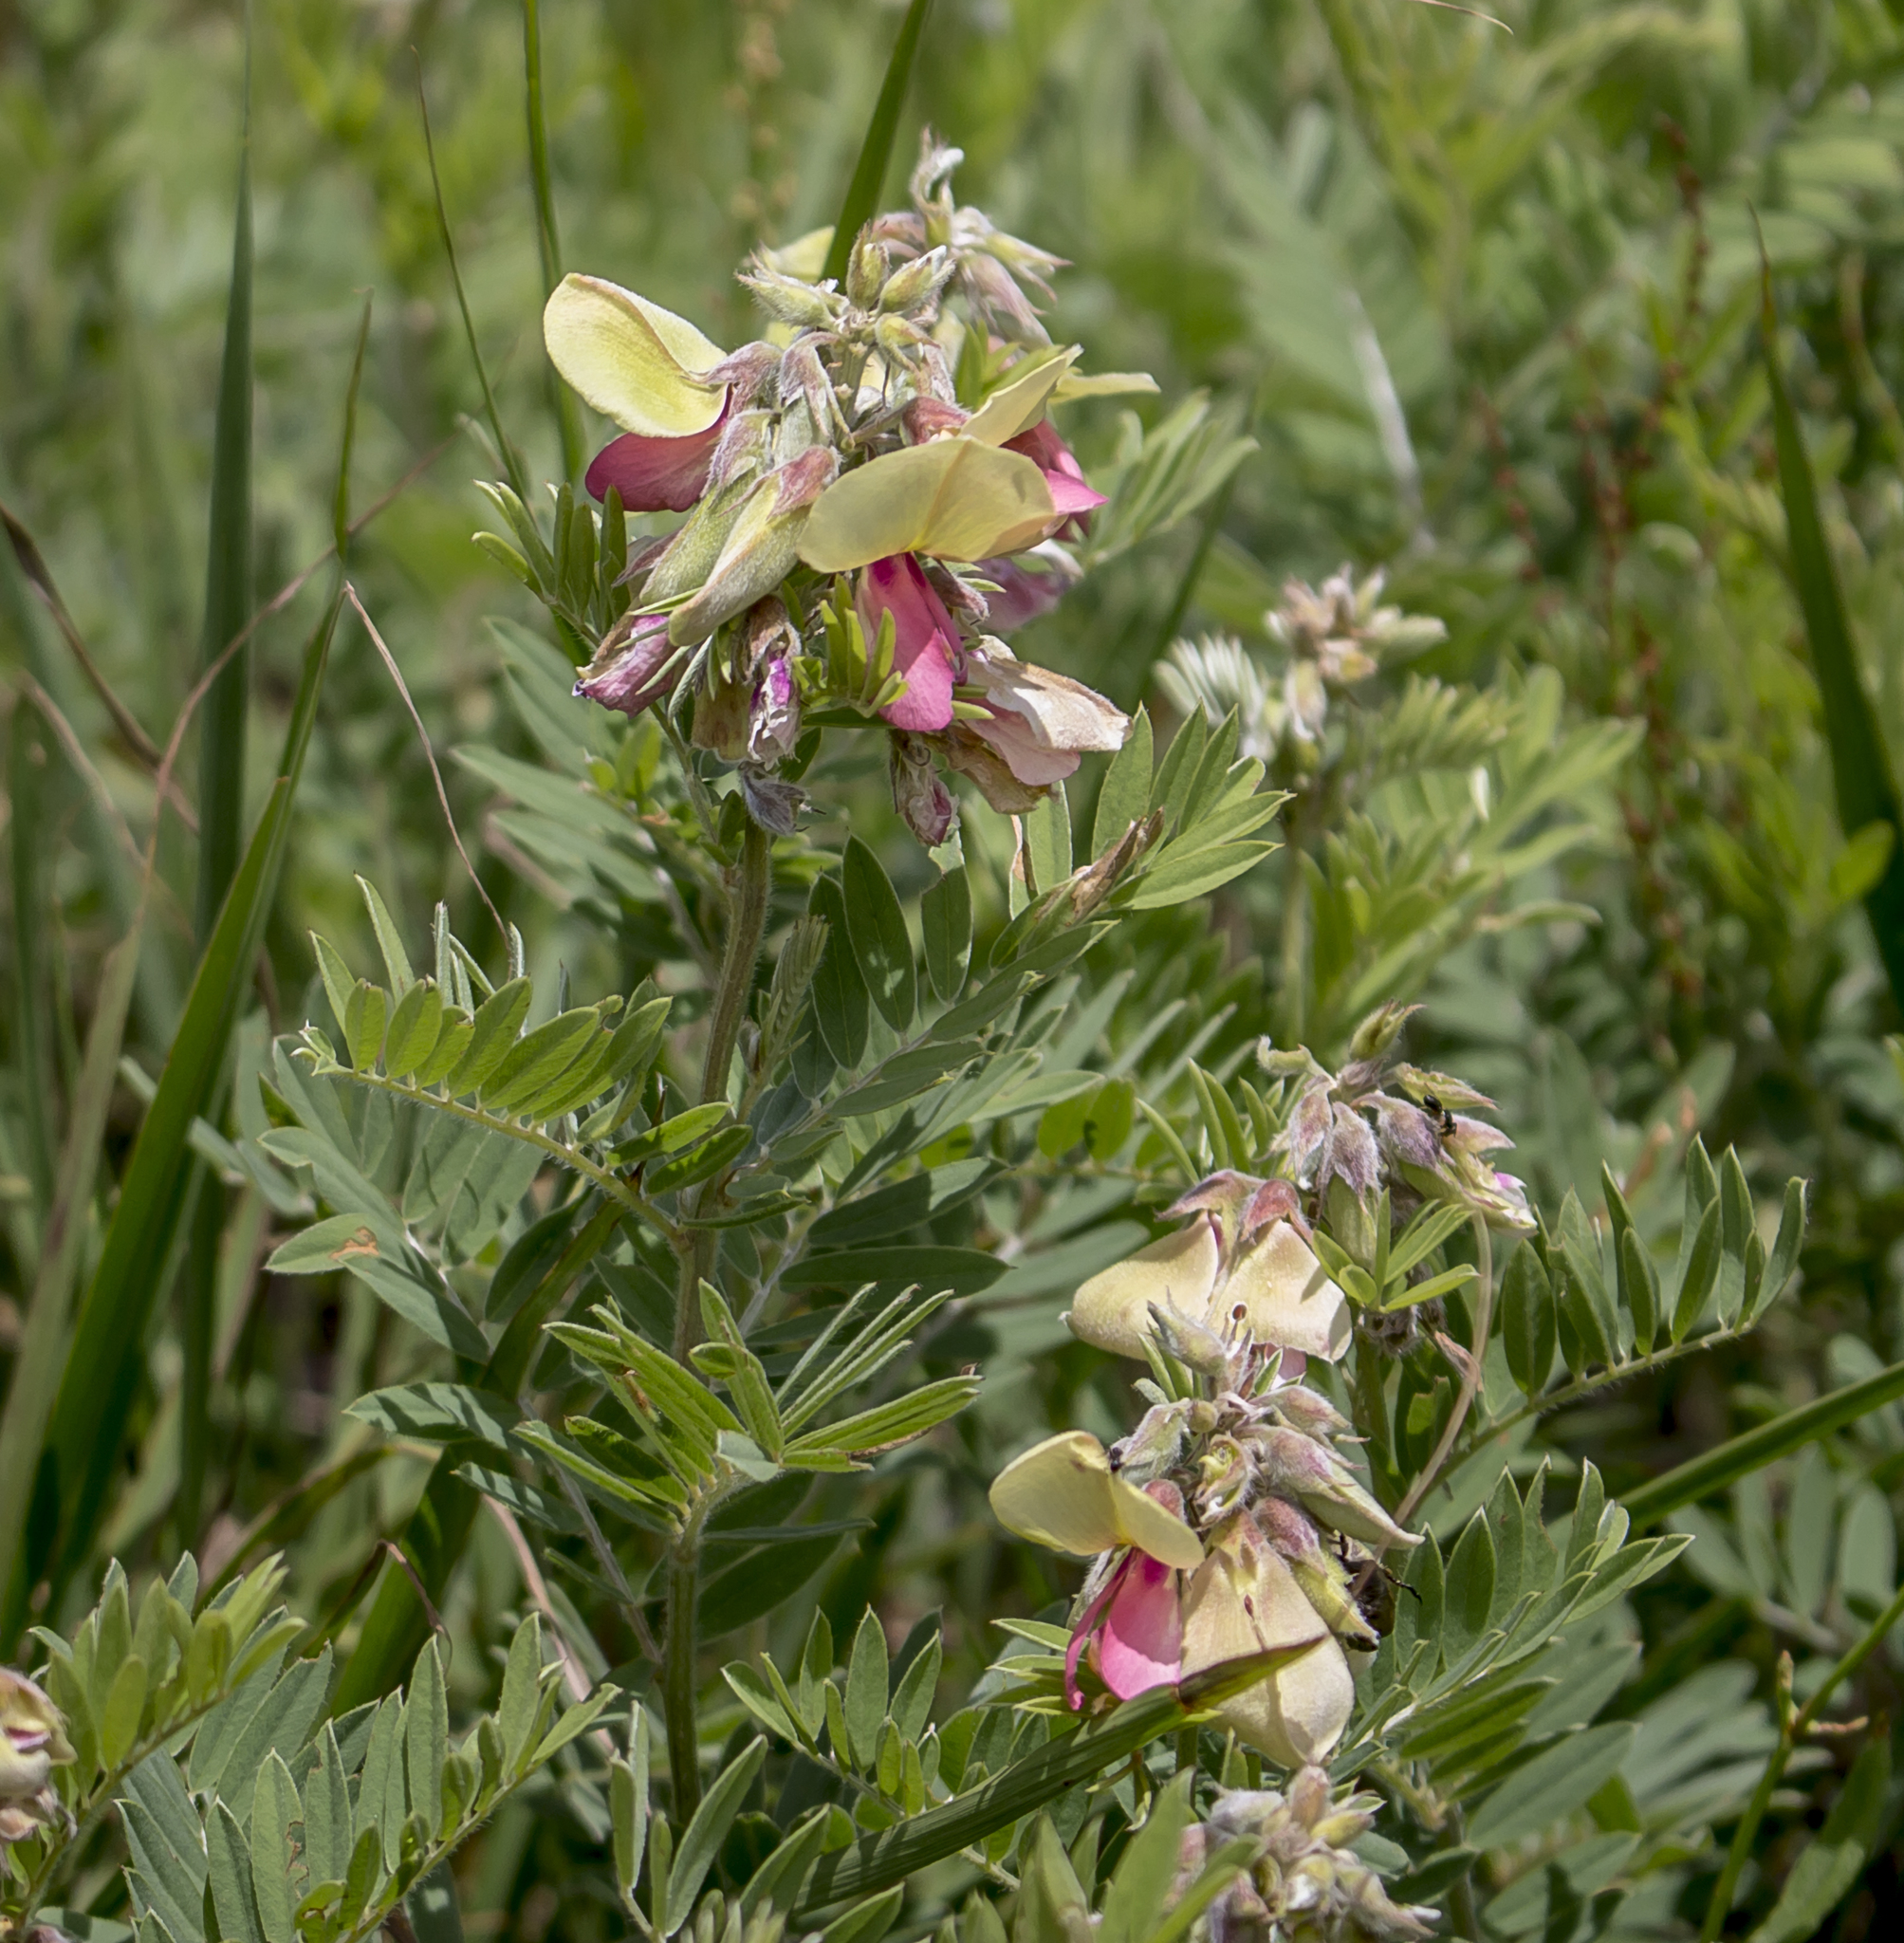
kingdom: Plantae
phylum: Tracheophyta
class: Magnoliopsida
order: Fabales
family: Fabaceae
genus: Tephrosia
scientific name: Tephrosia virginiana
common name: Rabbit-pea
